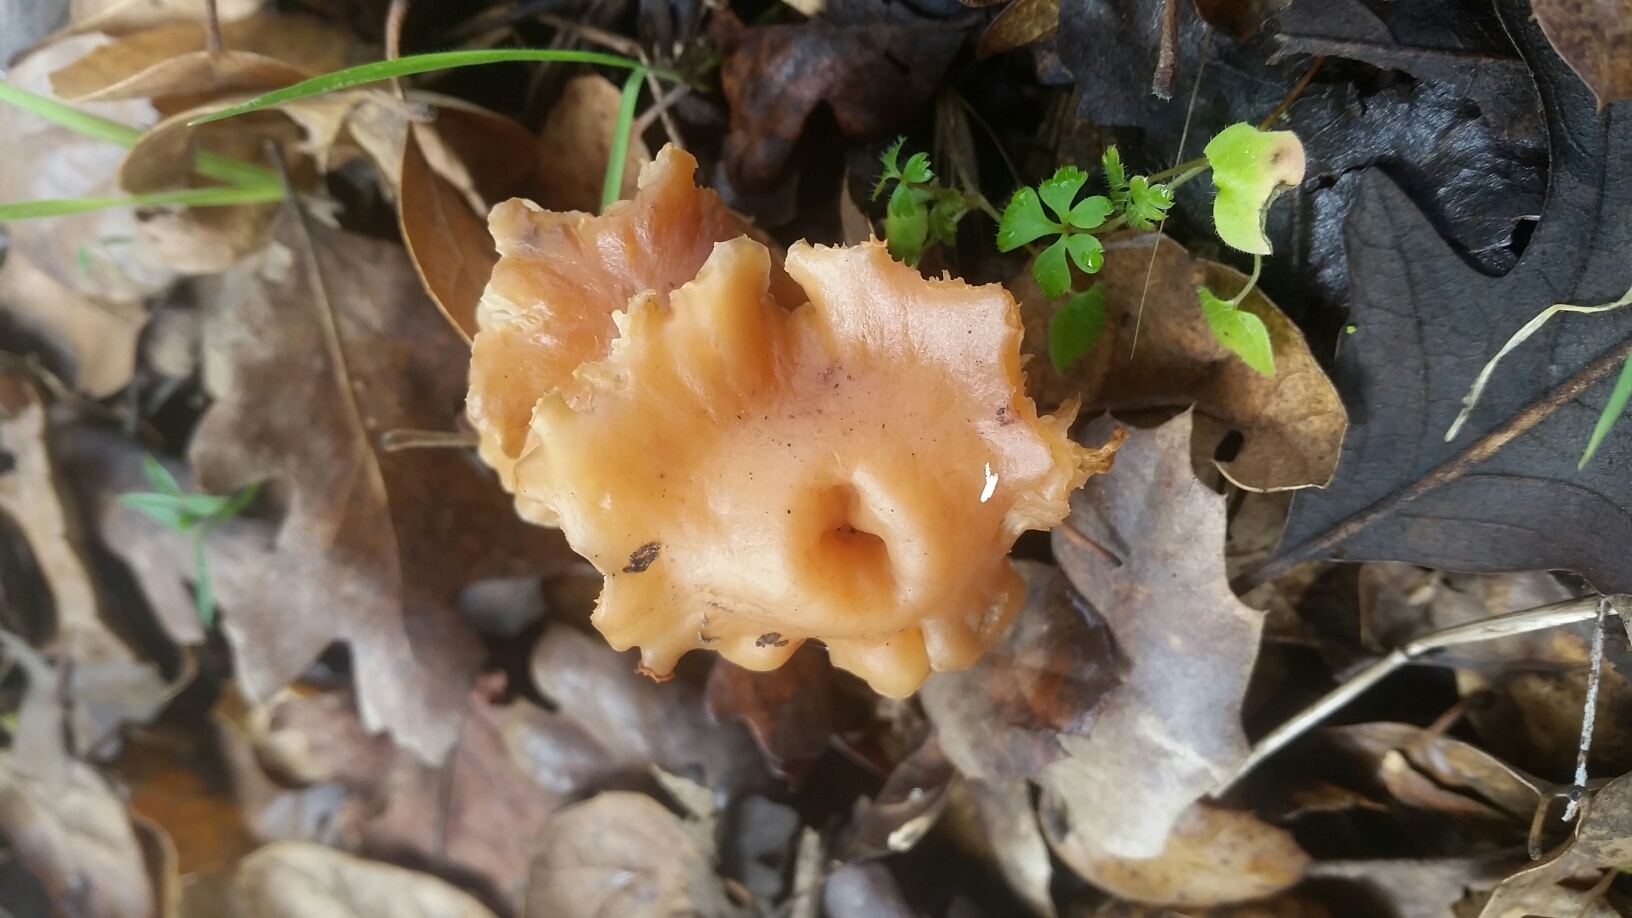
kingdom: Fungi
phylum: Basidiomycota
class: Agaricomycetes
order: Agaricales
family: Omphalotaceae
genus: Gymnopus
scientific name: Gymnopus dryophilus
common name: Penny top
